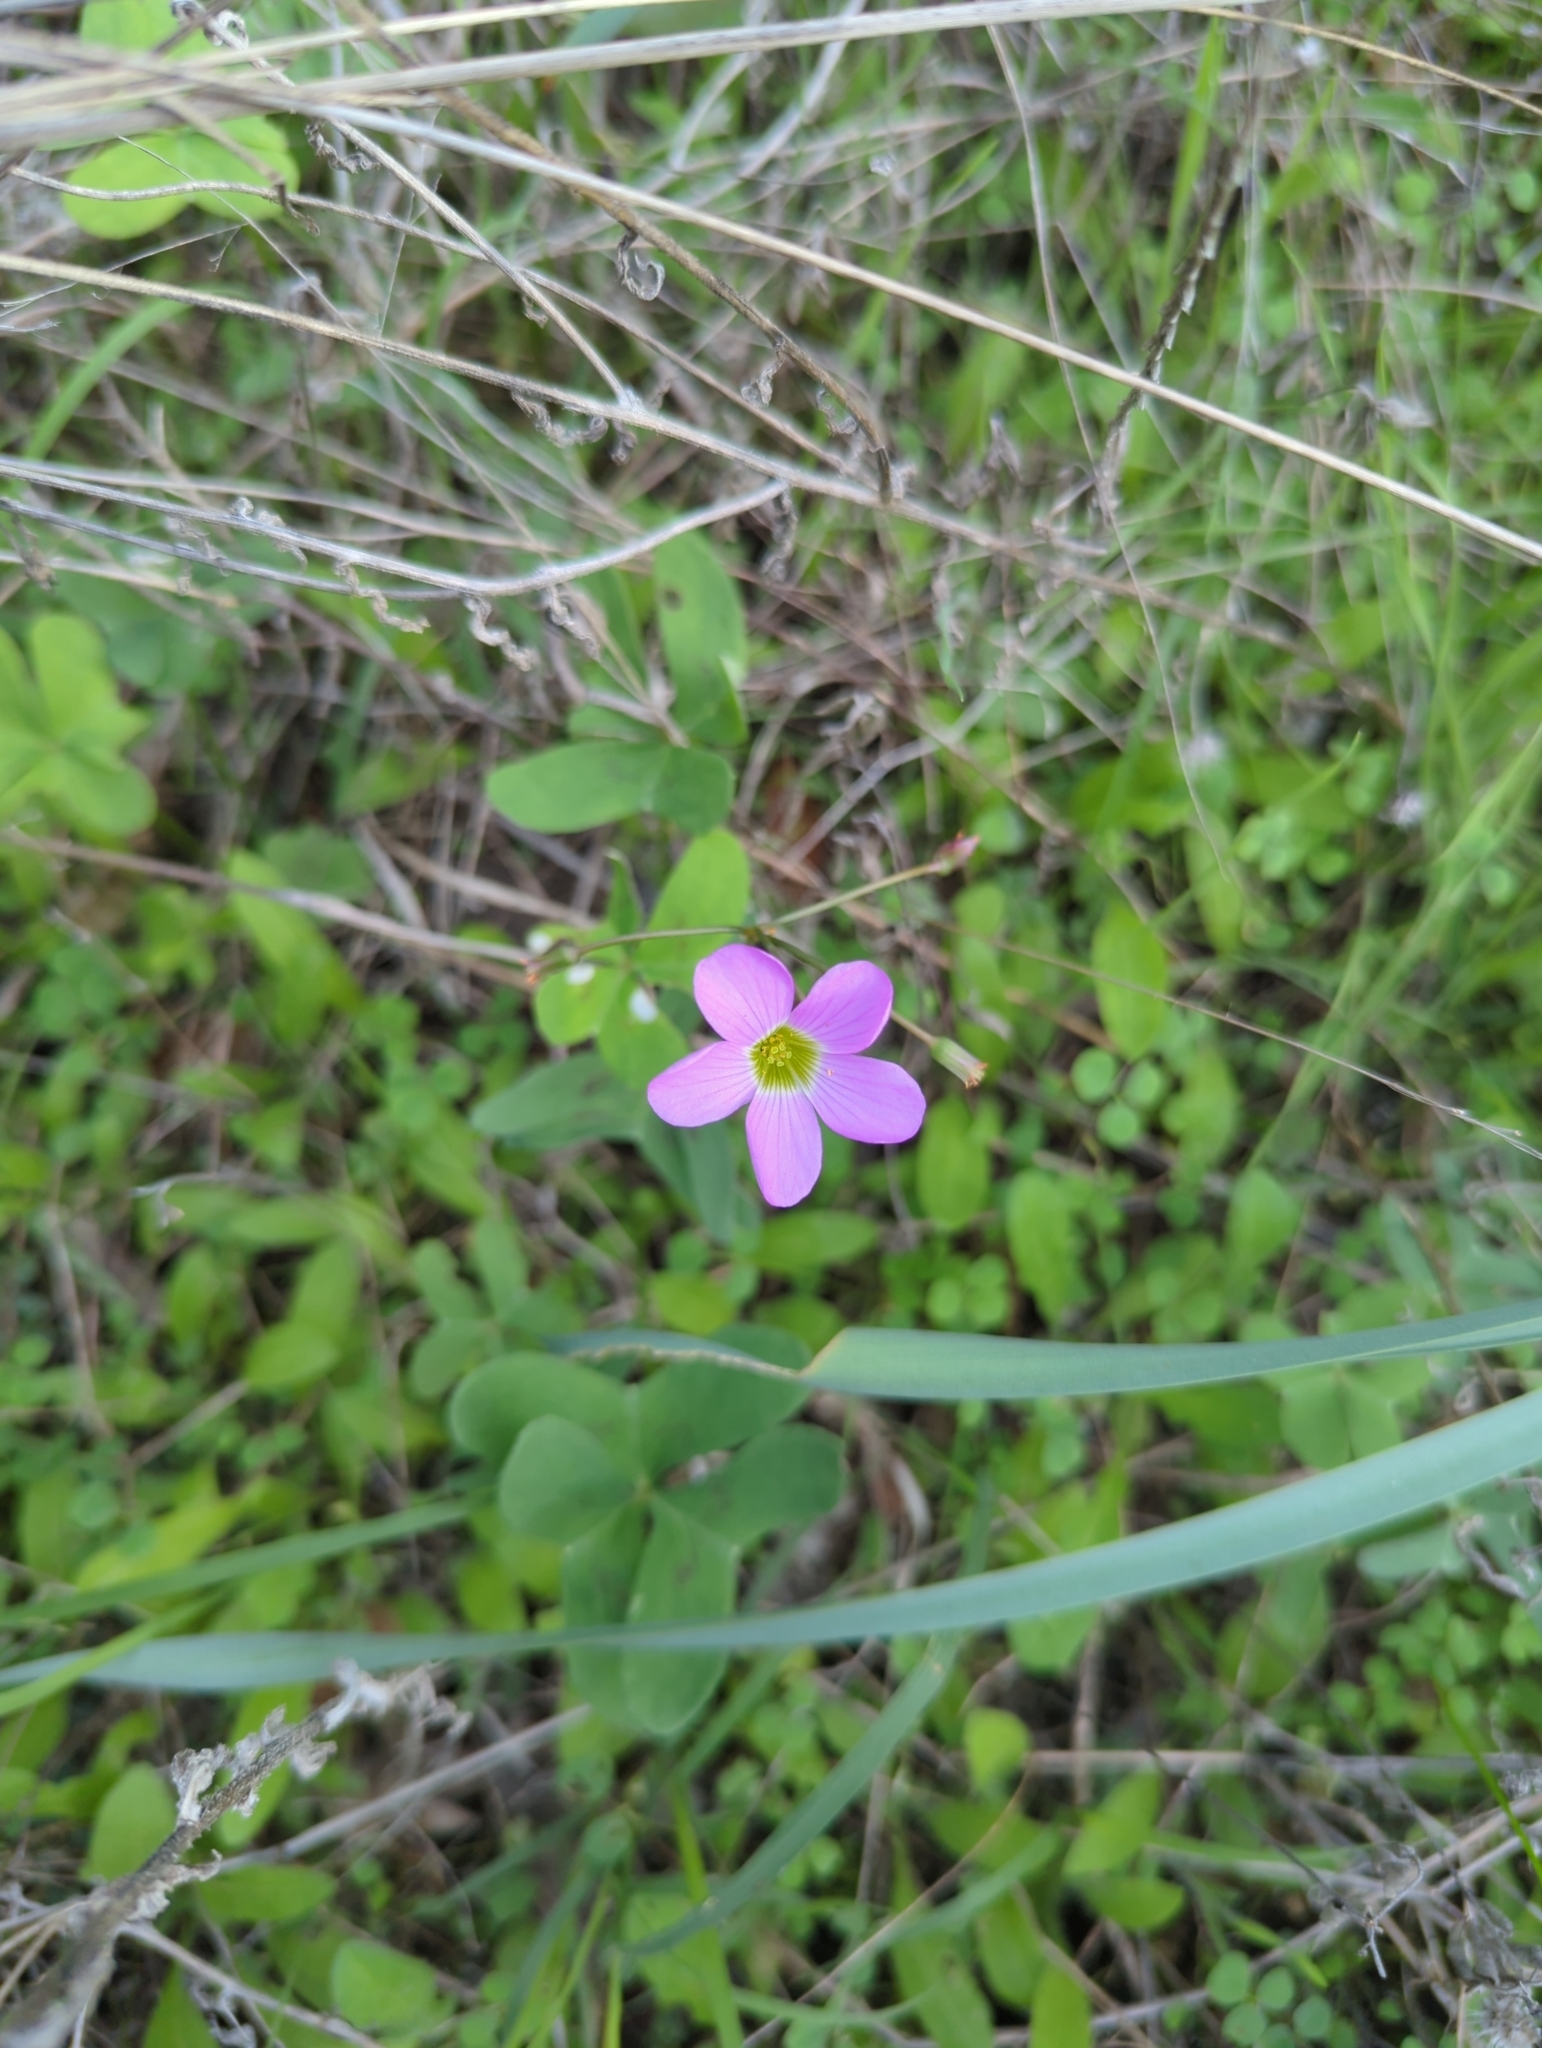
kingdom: Plantae
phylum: Tracheophyta
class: Magnoliopsida
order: Oxalidales
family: Oxalidaceae
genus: Oxalis
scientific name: Oxalis drummondii
